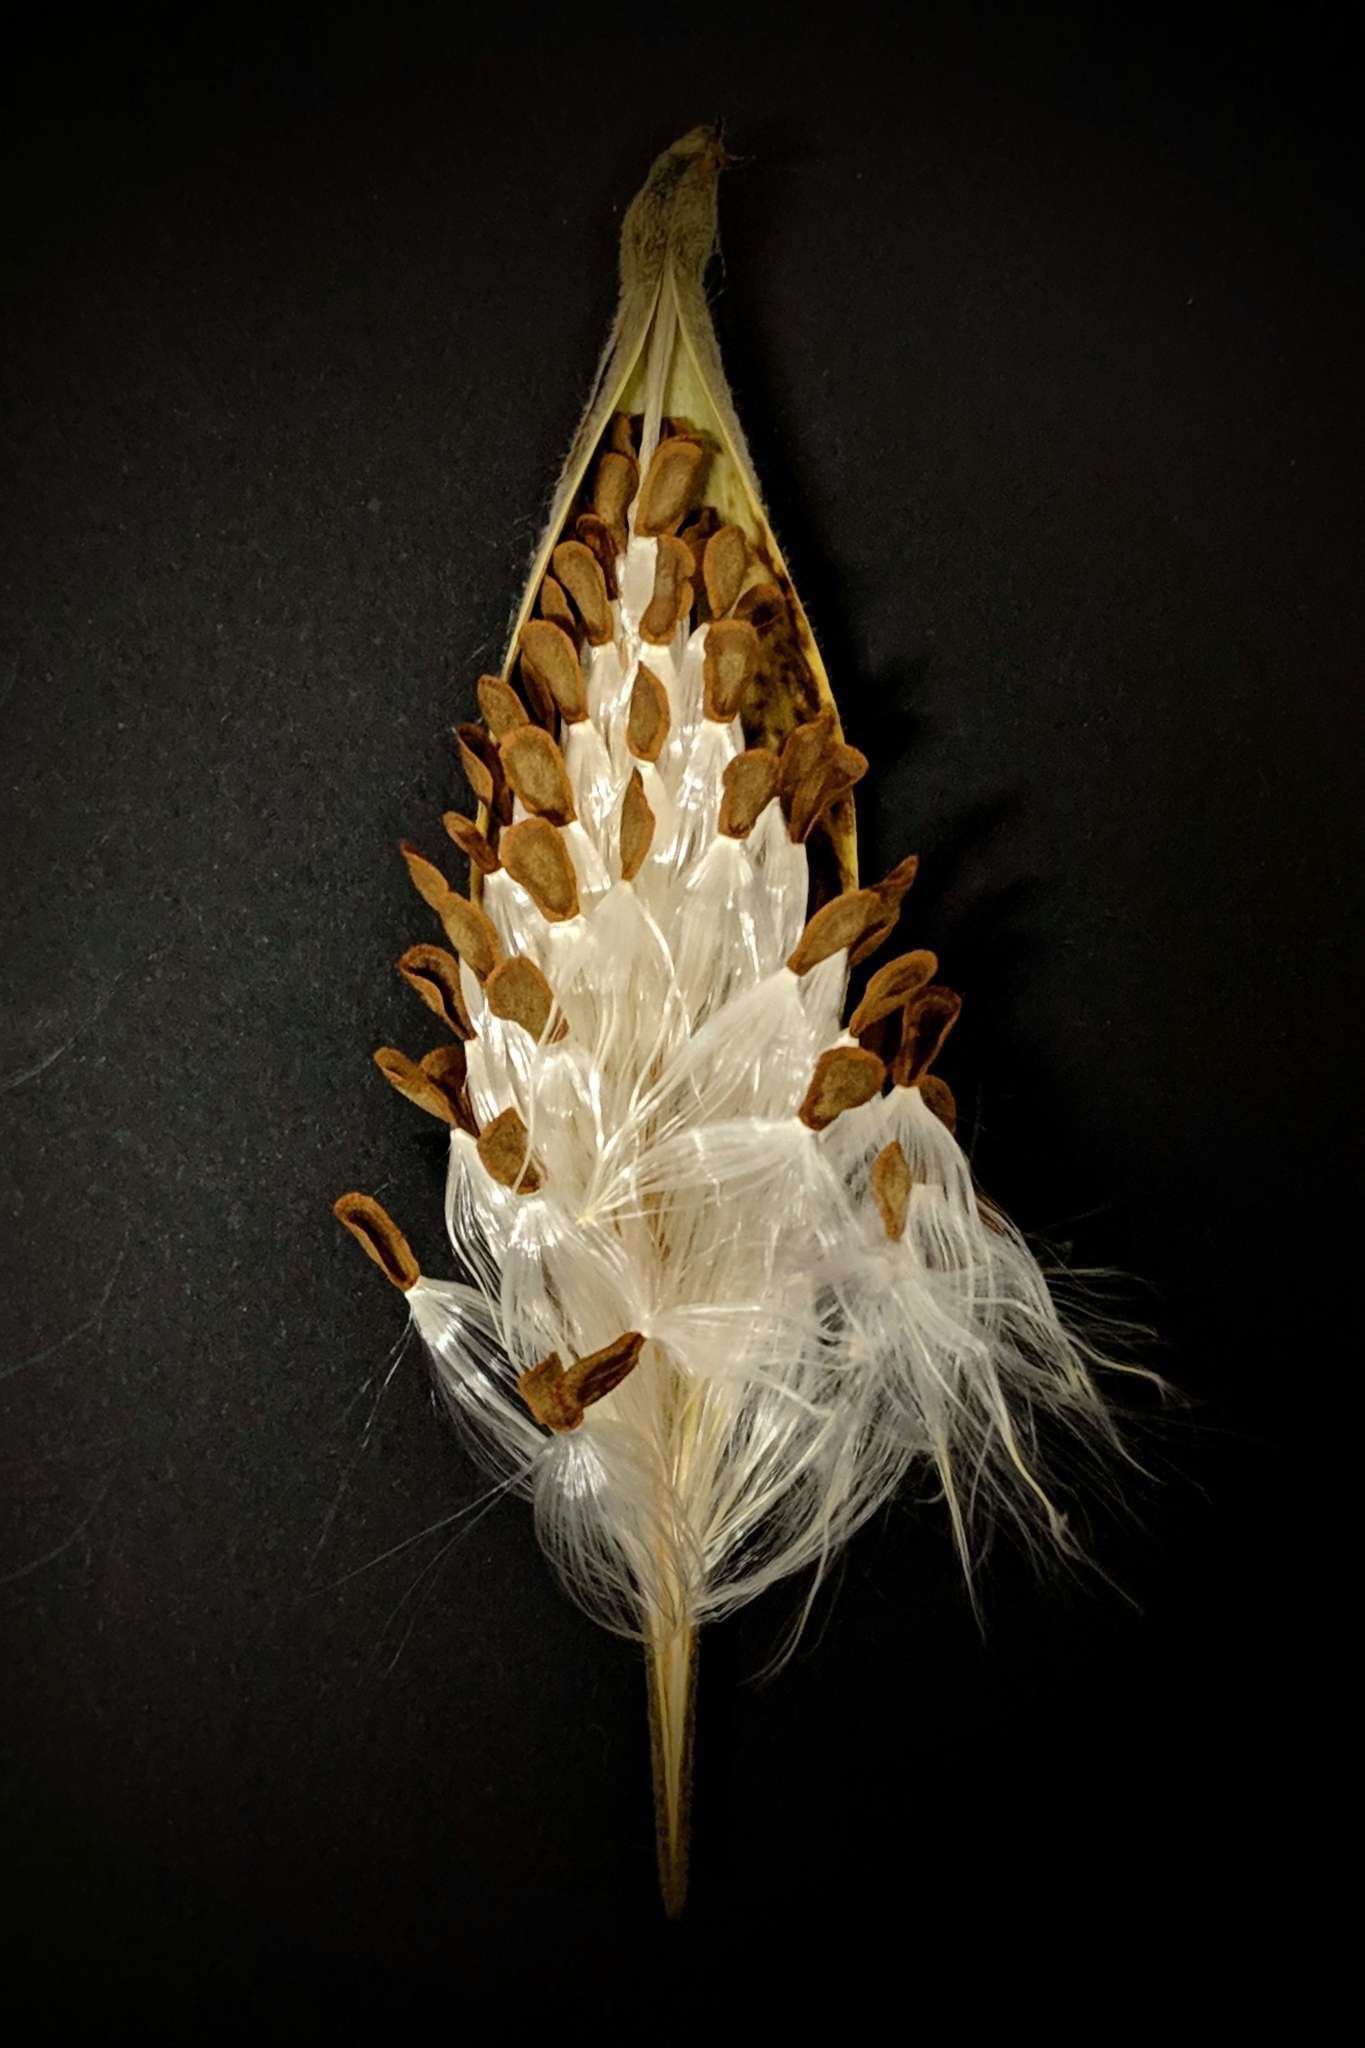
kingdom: Plantae
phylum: Tracheophyta
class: Magnoliopsida
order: Gentianales
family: Apocynaceae
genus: Asclepias
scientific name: Asclepias tuberosa
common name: Butterfly milkweed
